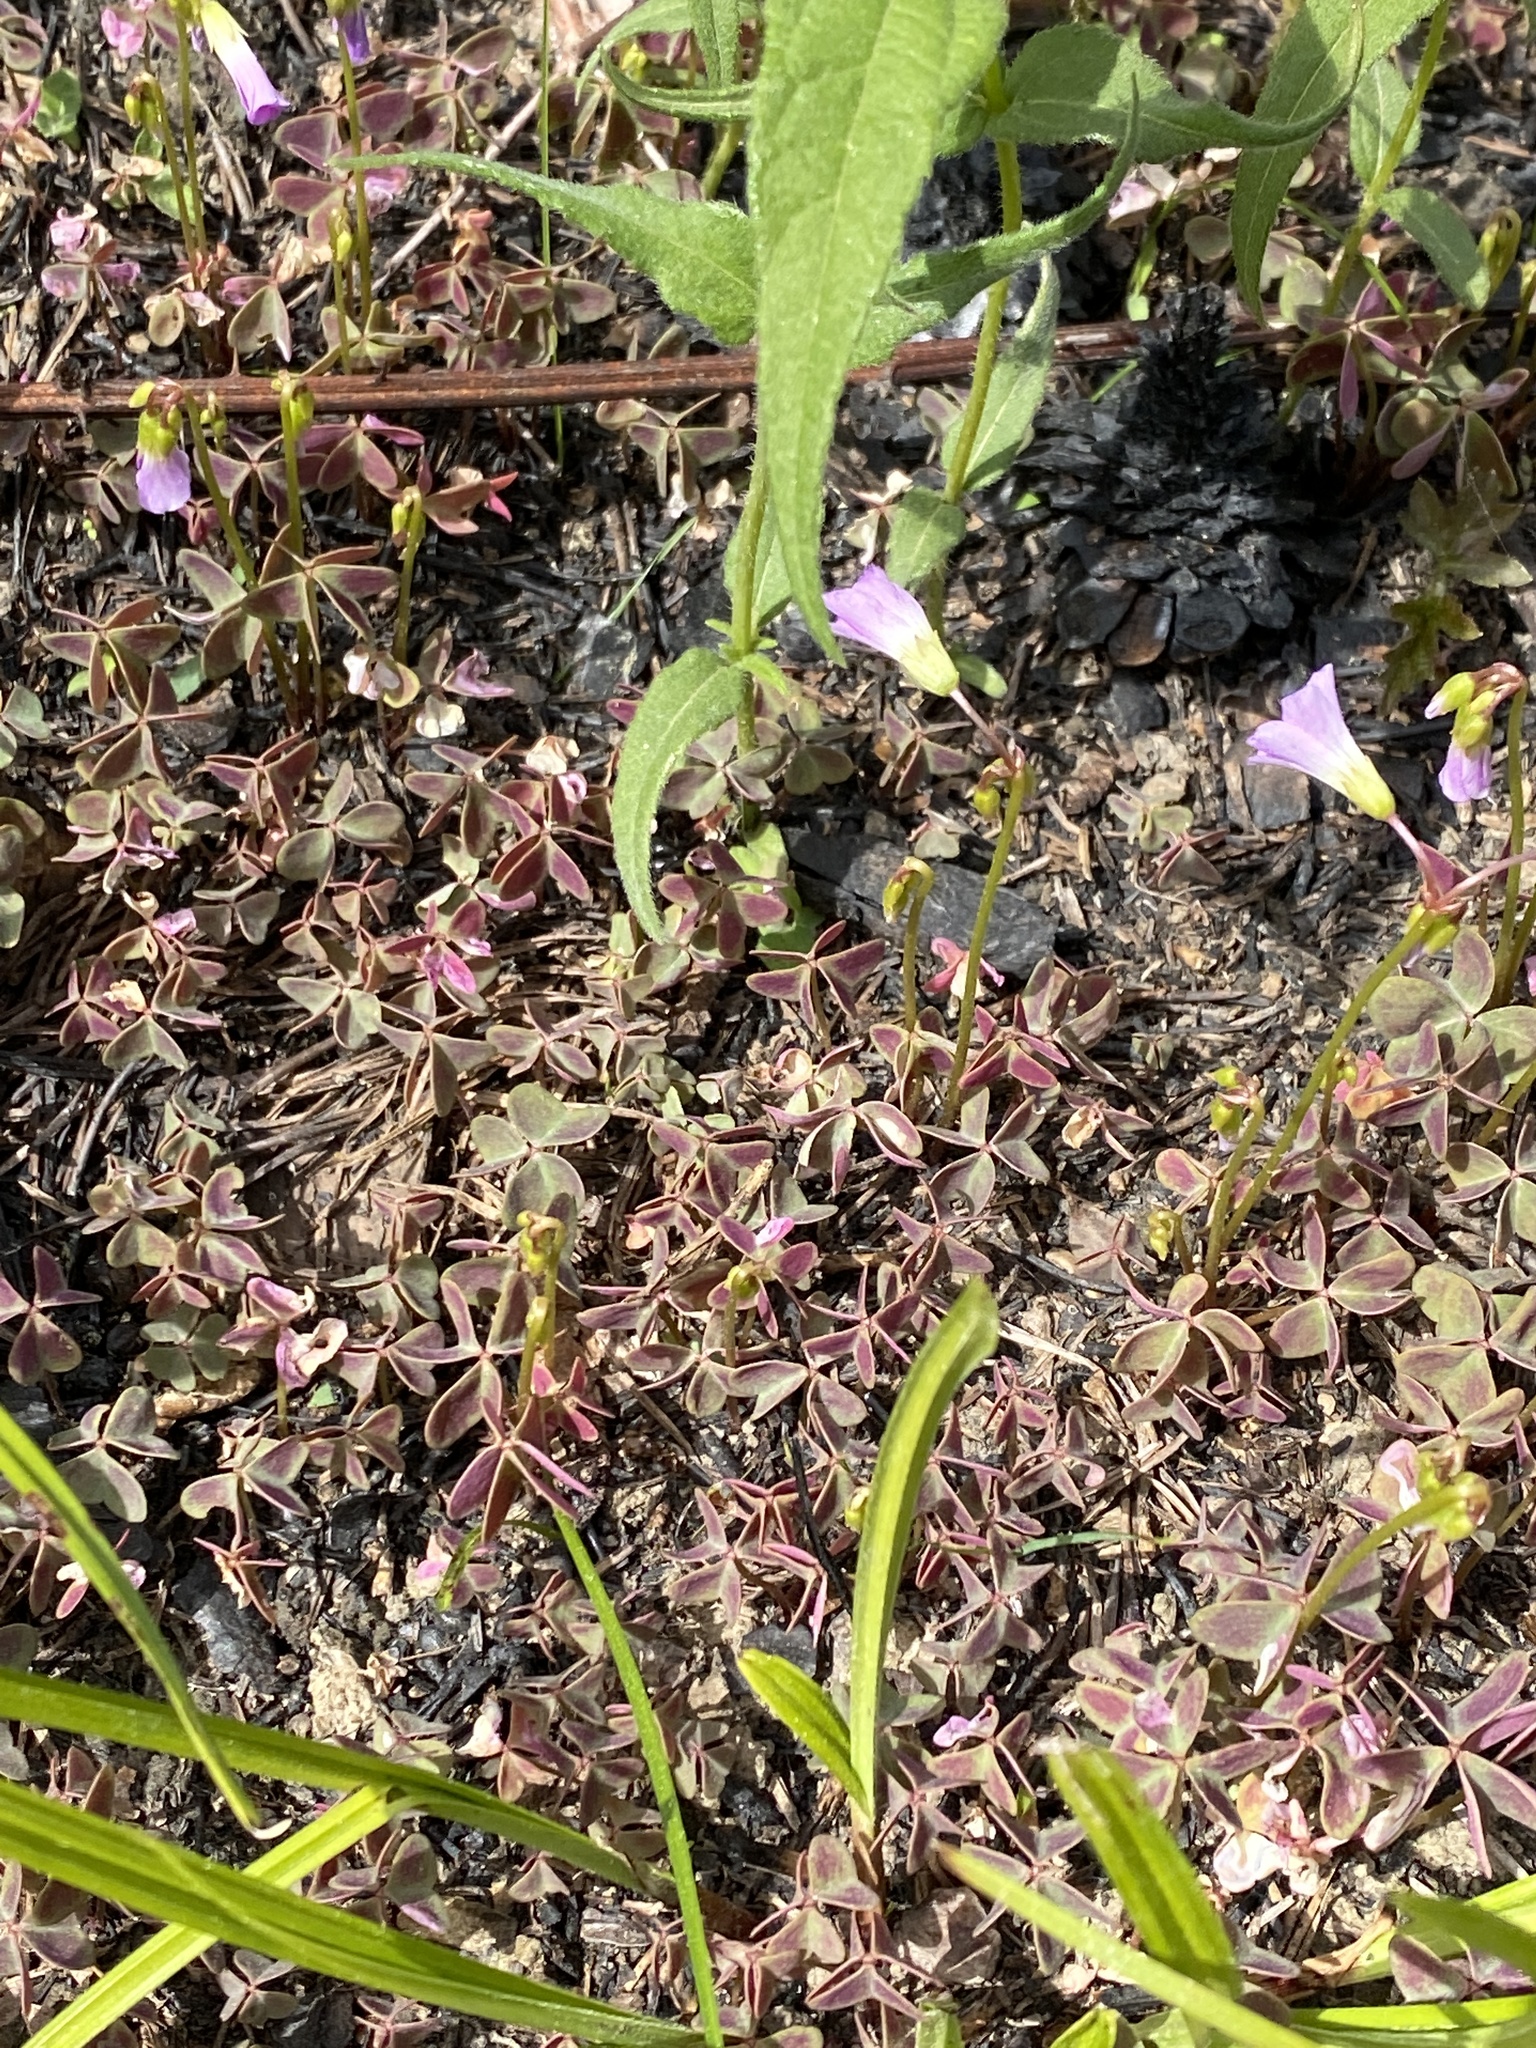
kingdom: Plantae
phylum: Tracheophyta
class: Magnoliopsida
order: Oxalidales
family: Oxalidaceae
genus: Oxalis
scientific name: Oxalis violacea
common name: Violet wood-sorrel
